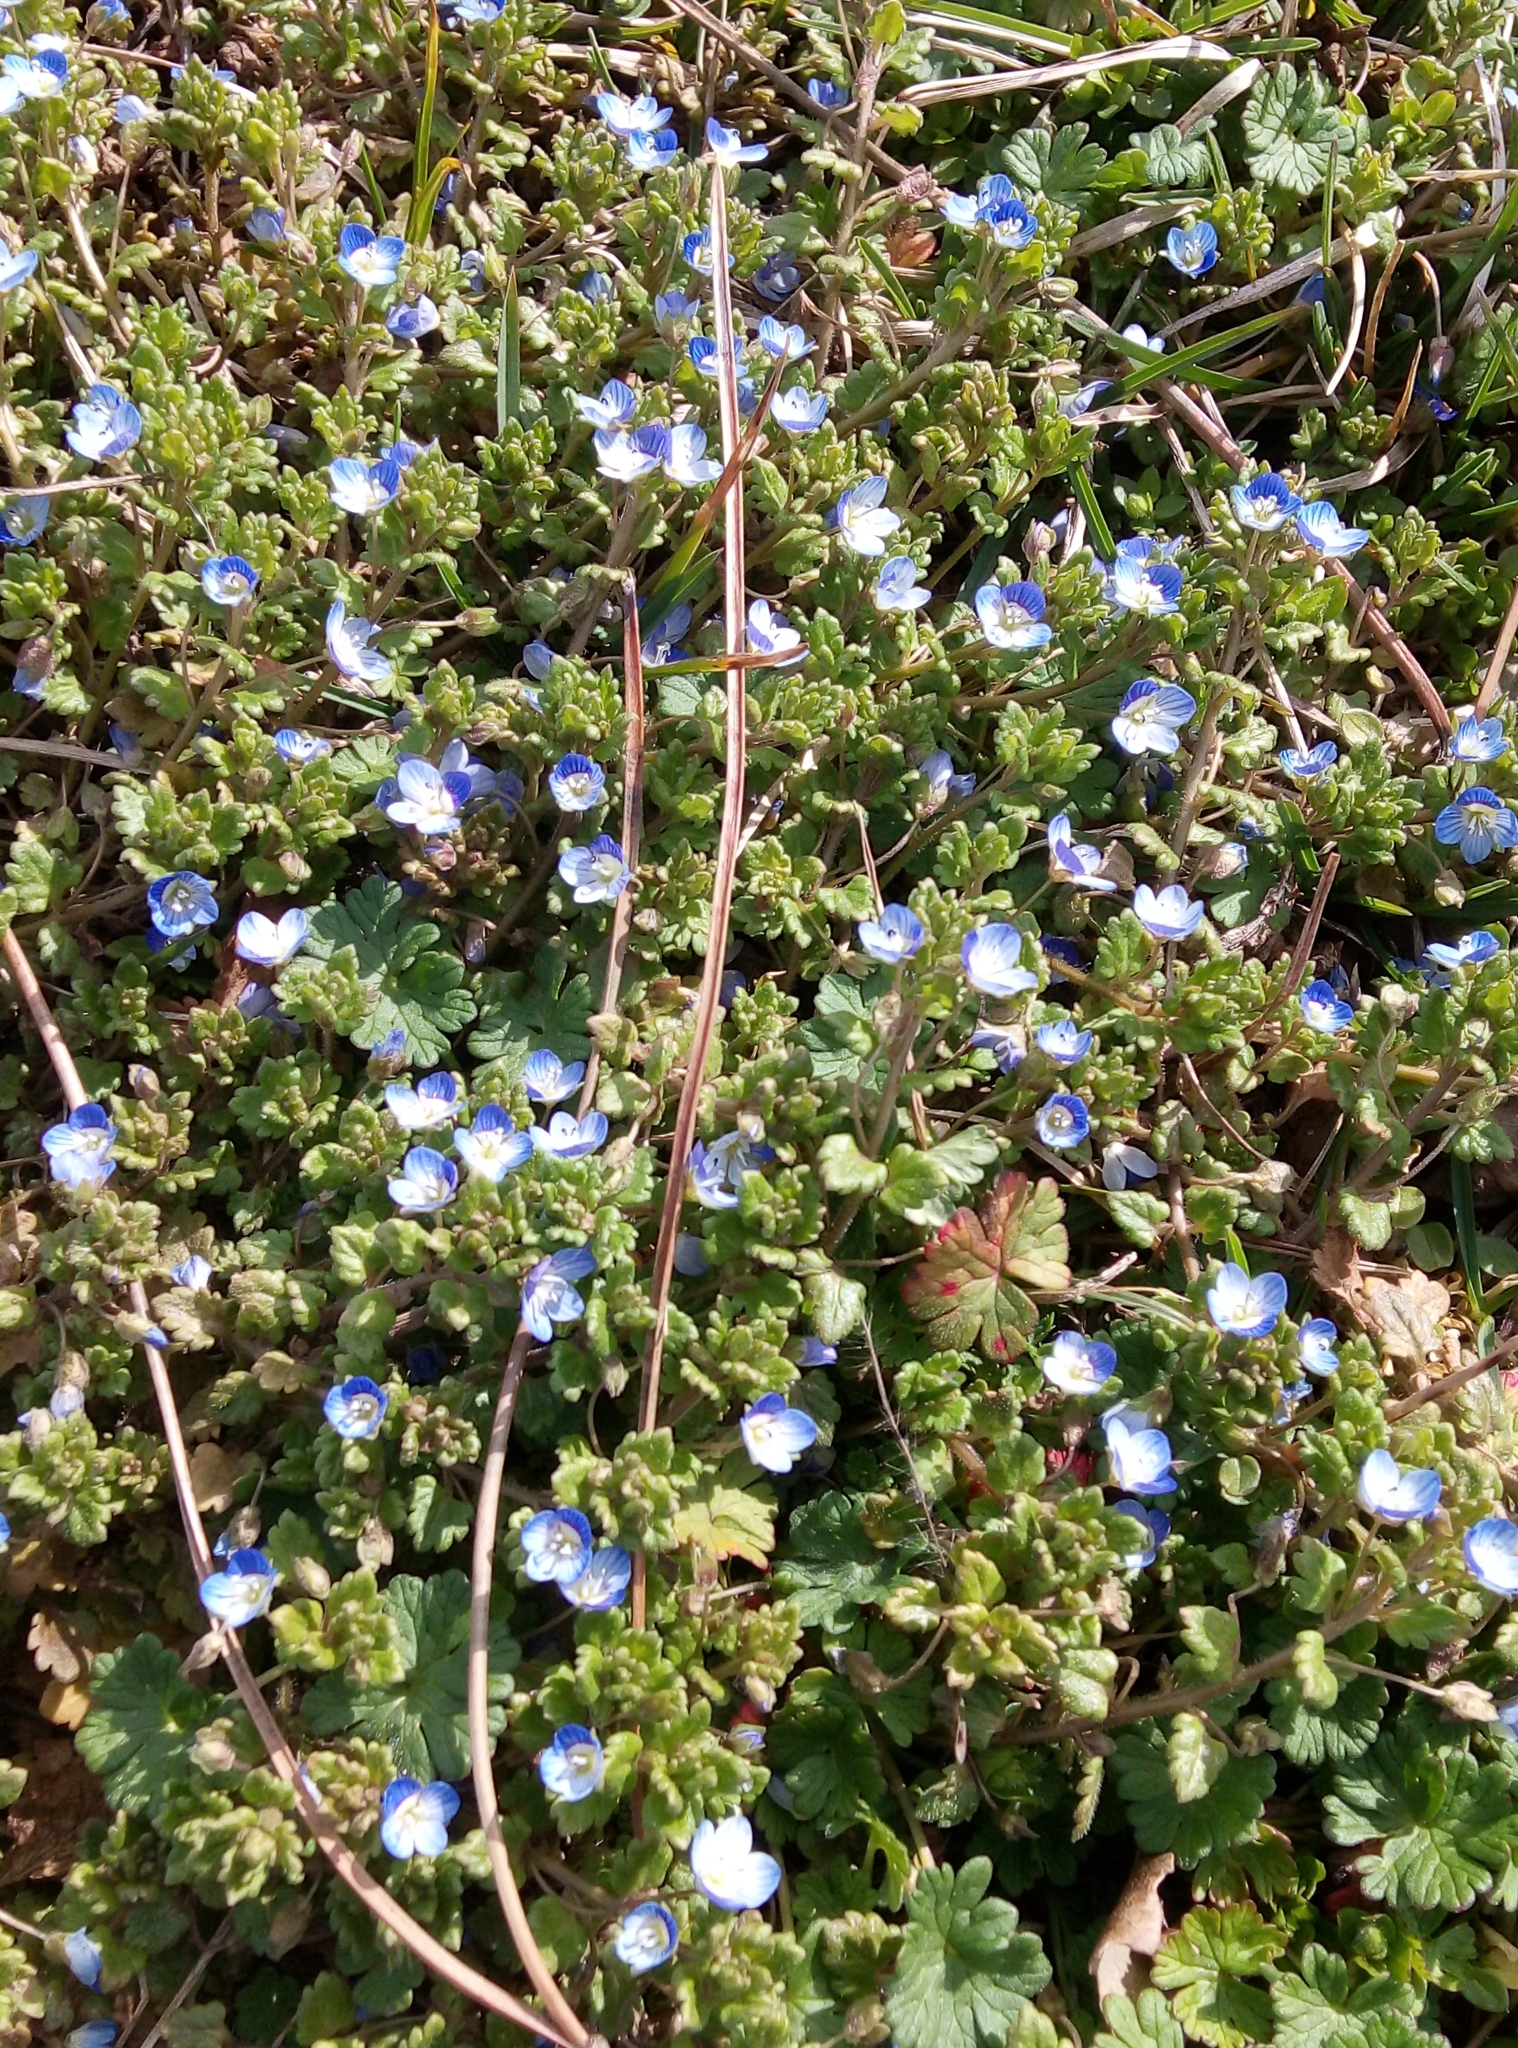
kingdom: Plantae
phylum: Tracheophyta
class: Magnoliopsida
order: Lamiales
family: Plantaginaceae
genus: Veronica
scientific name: Veronica persica
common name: Common field-speedwell
